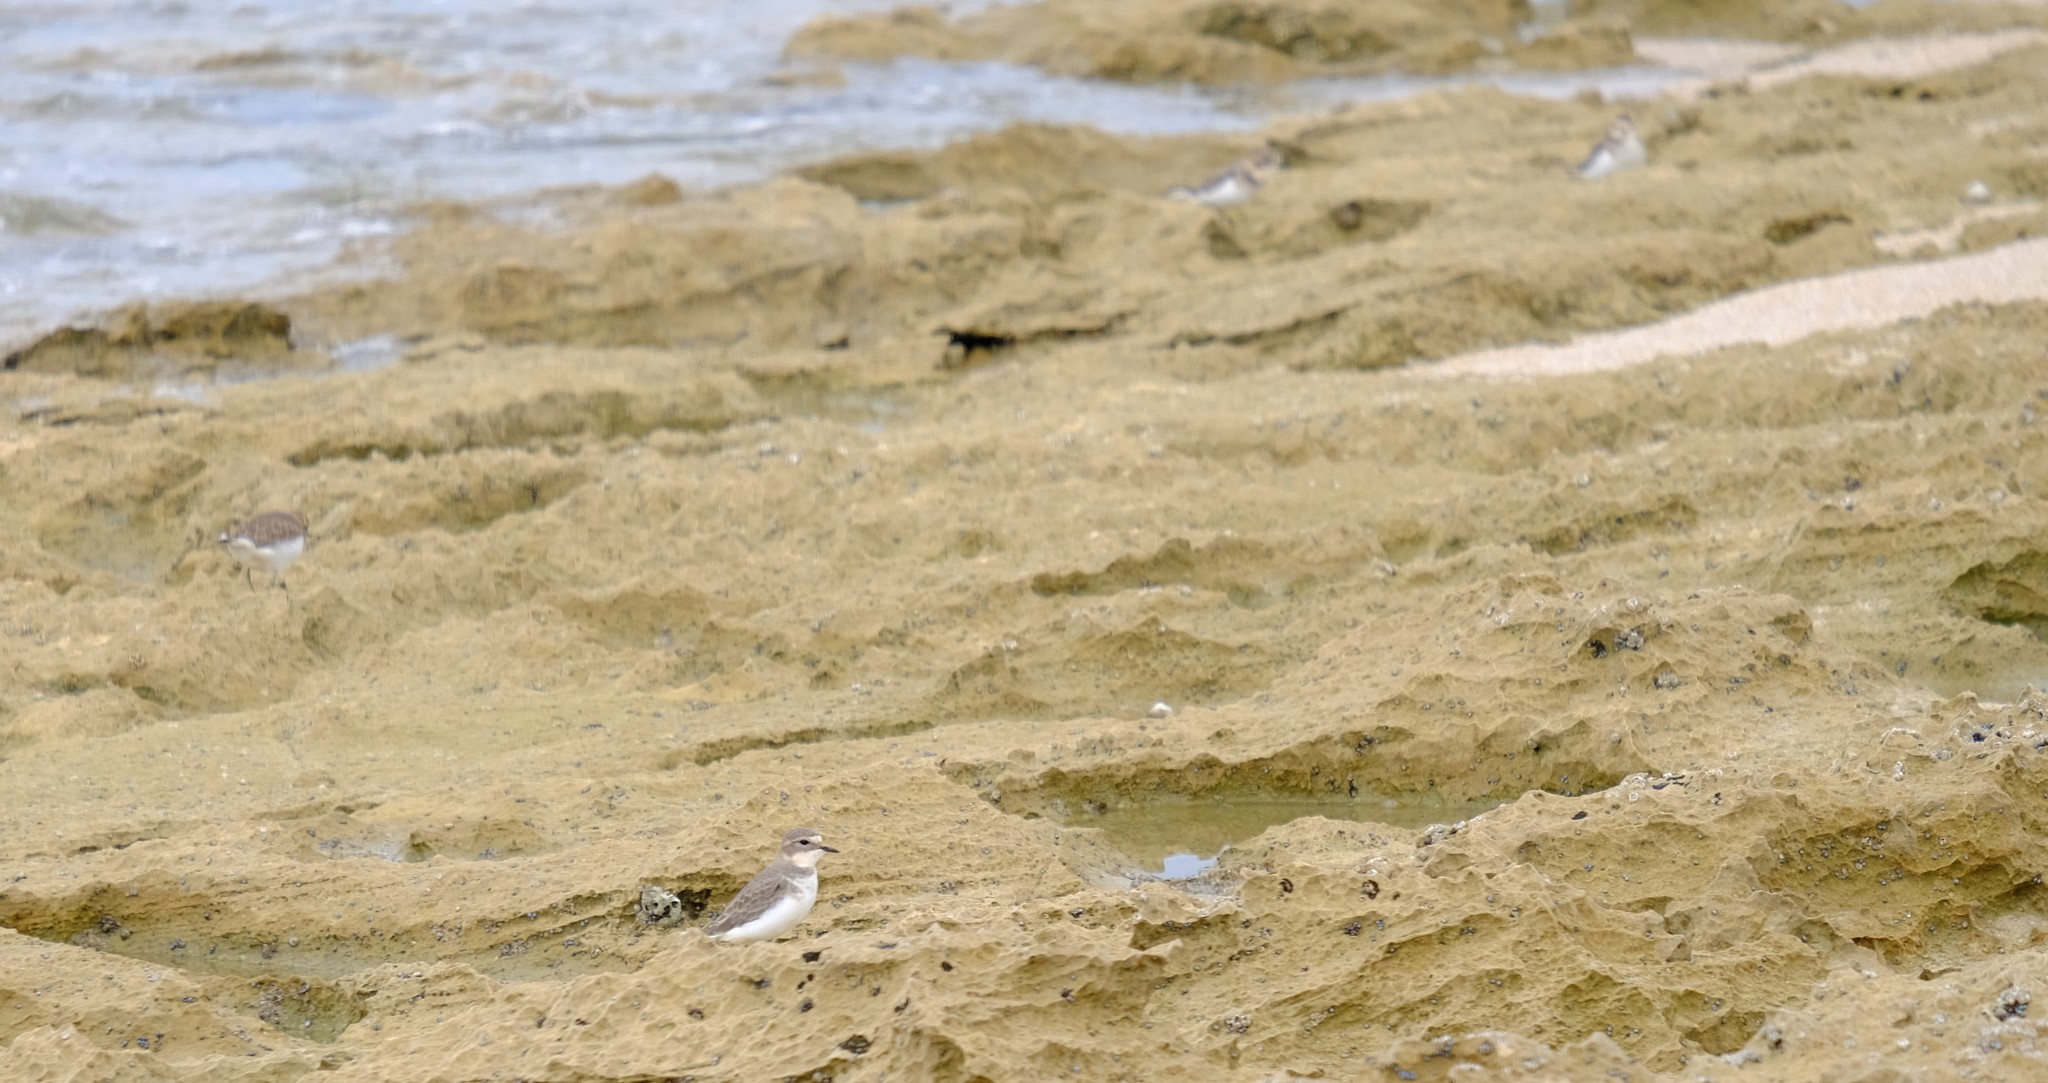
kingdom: Animalia
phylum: Chordata
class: Aves
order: Charadriiformes
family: Charadriidae
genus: Anarhynchus
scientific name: Anarhynchus
